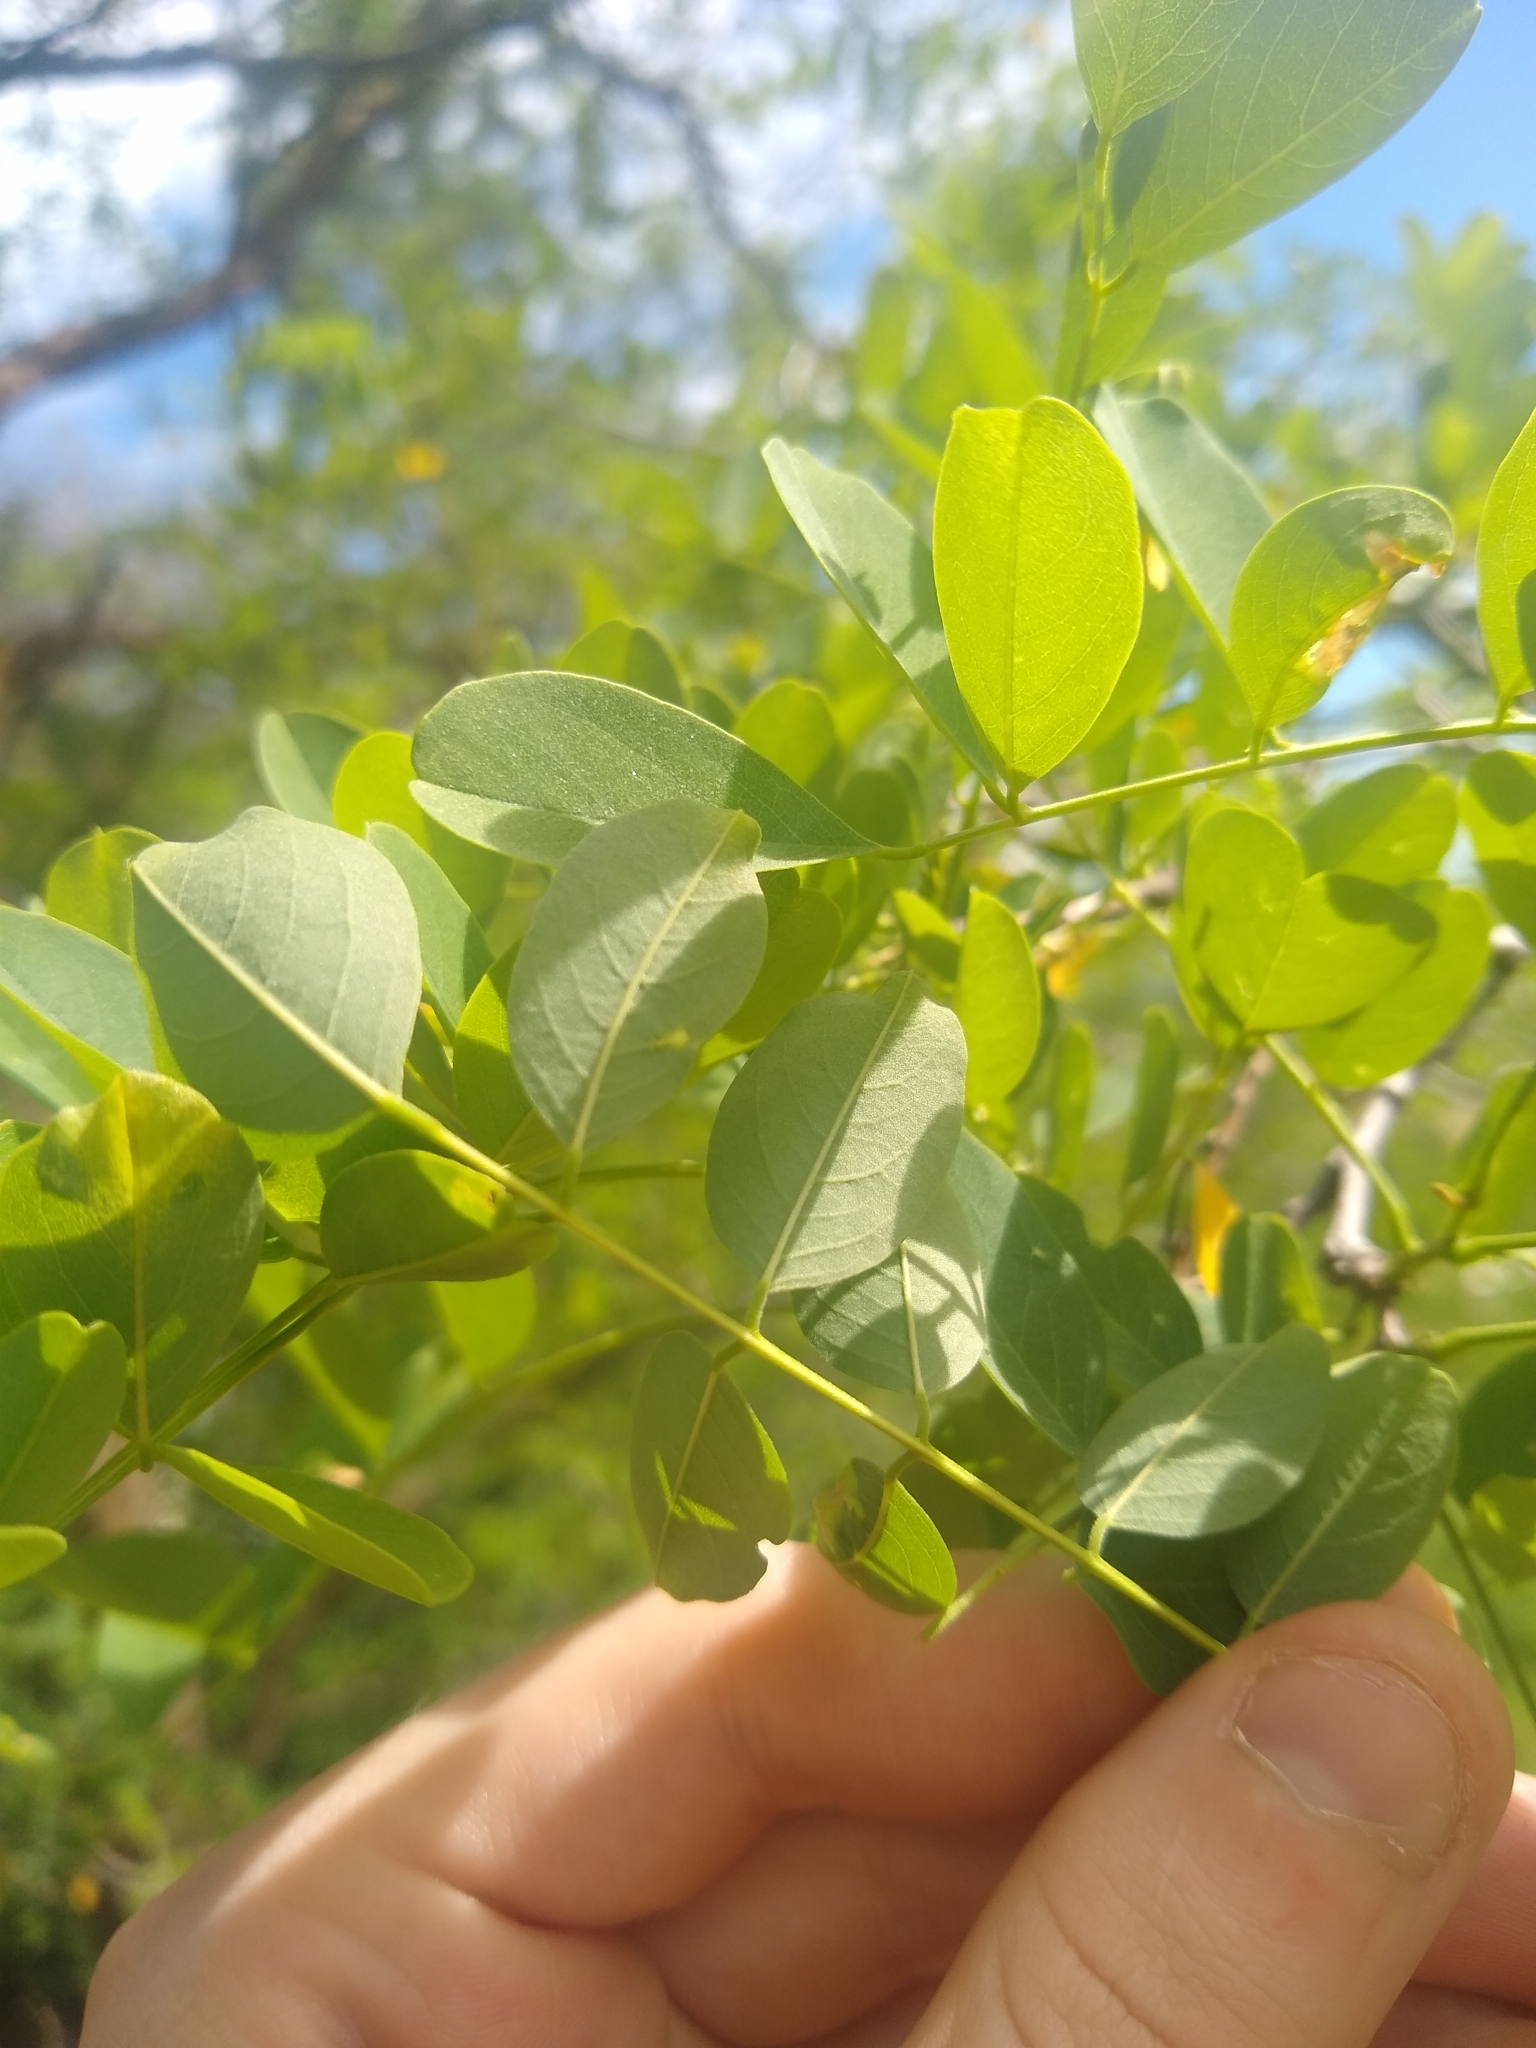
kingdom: Plantae
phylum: Tracheophyta
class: Magnoliopsida
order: Fabales
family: Fabaceae
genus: Robinia
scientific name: Robinia pseudoacacia
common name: Black locust
